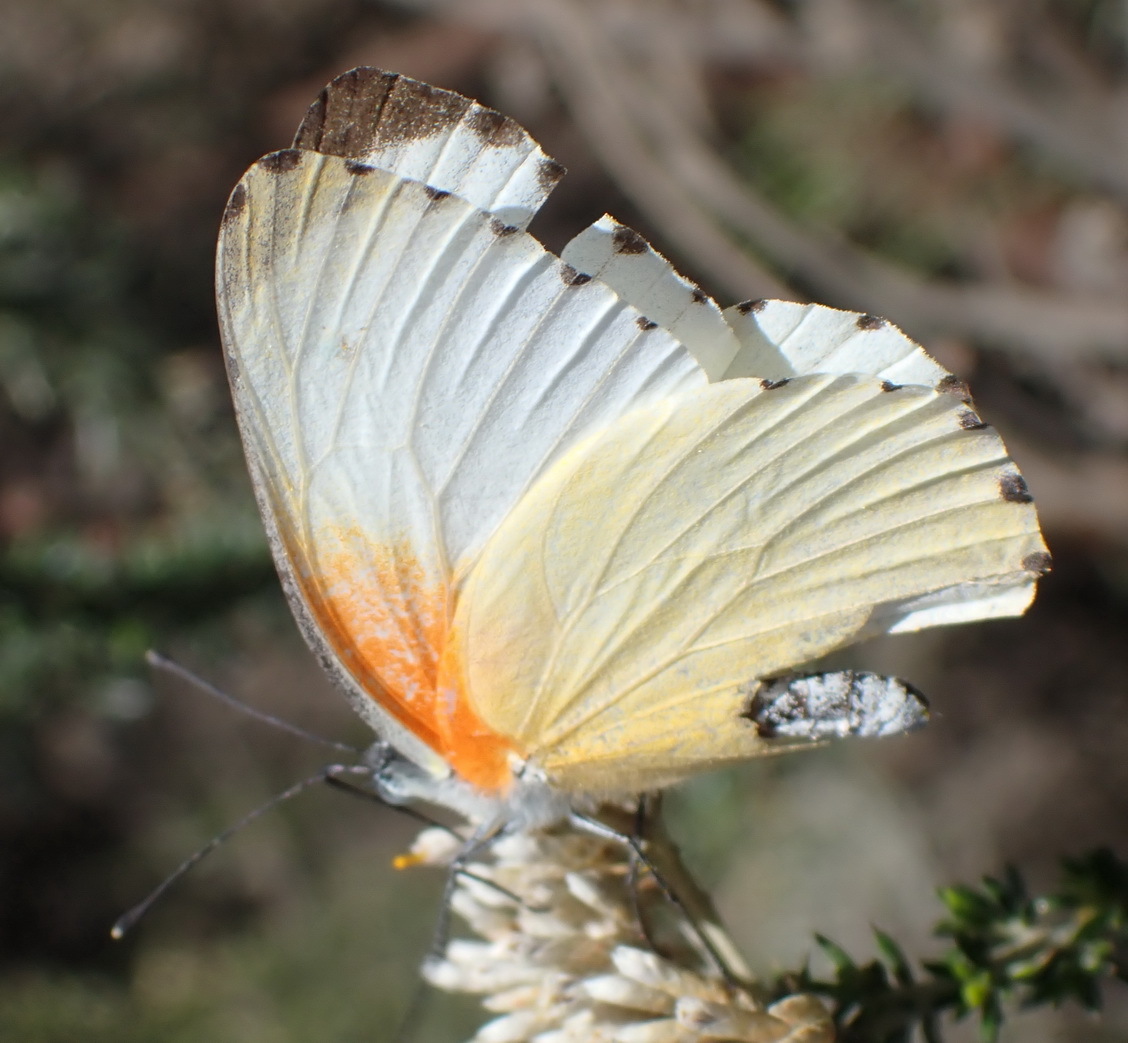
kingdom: Animalia
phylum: Arthropoda
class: Insecta
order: Lepidoptera
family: Pieridae
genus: Mylothris
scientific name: Mylothris agathina
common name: Eastern dotted border
